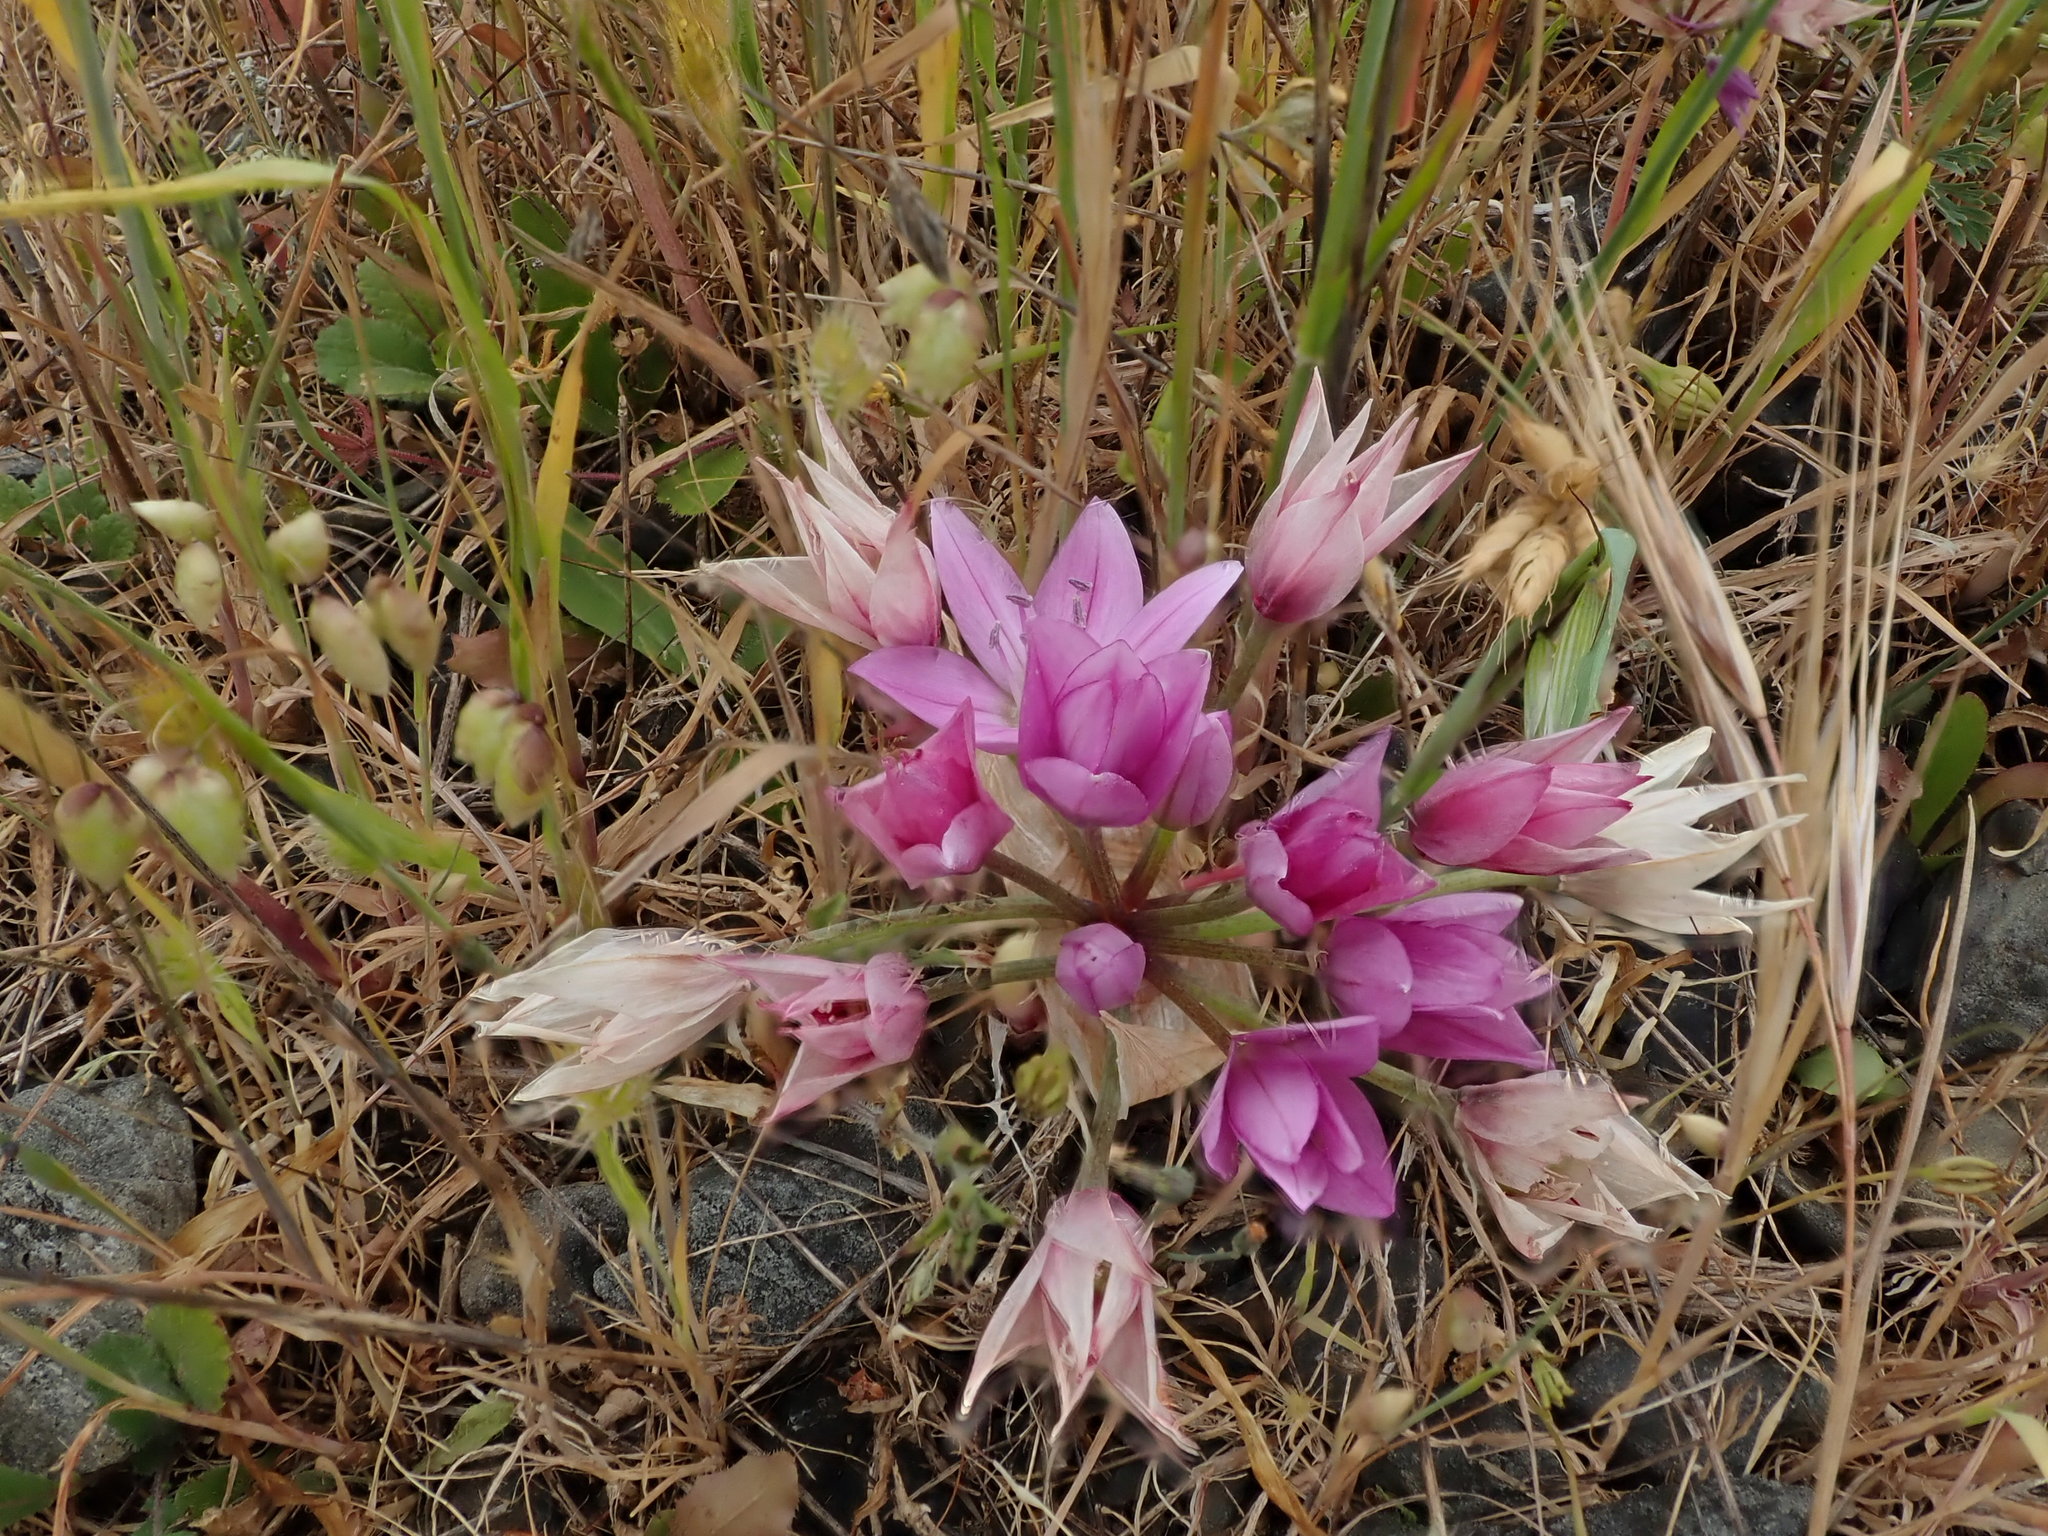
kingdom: Plantae
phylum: Tracheophyta
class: Liliopsida
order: Asparagales
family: Amaryllidaceae
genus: Allium
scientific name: Allium unifolium
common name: American garlic
